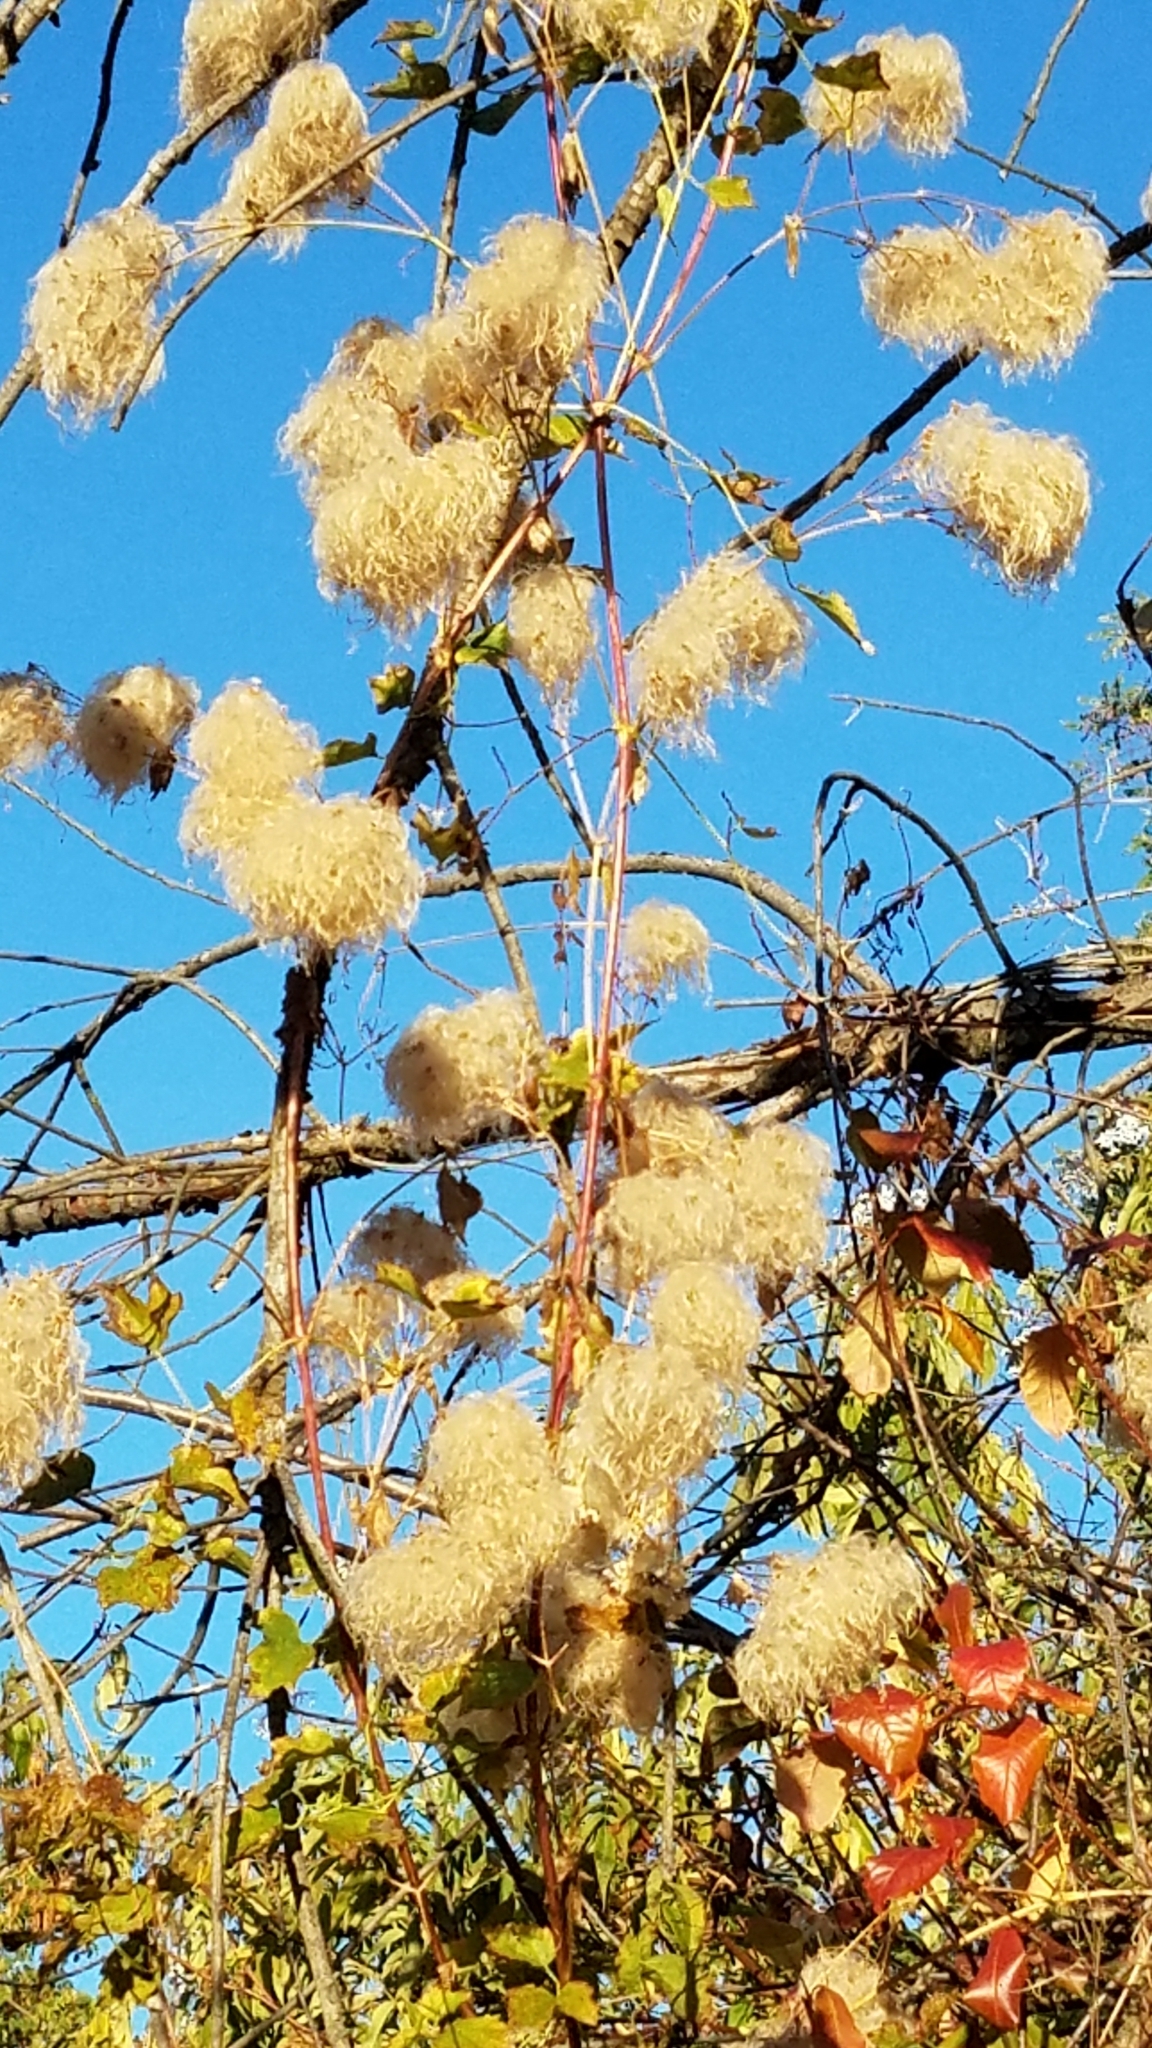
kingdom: Plantae
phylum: Tracheophyta
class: Magnoliopsida
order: Ranunculales
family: Ranunculaceae
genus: Clematis
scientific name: Clematis ligusticifolia
